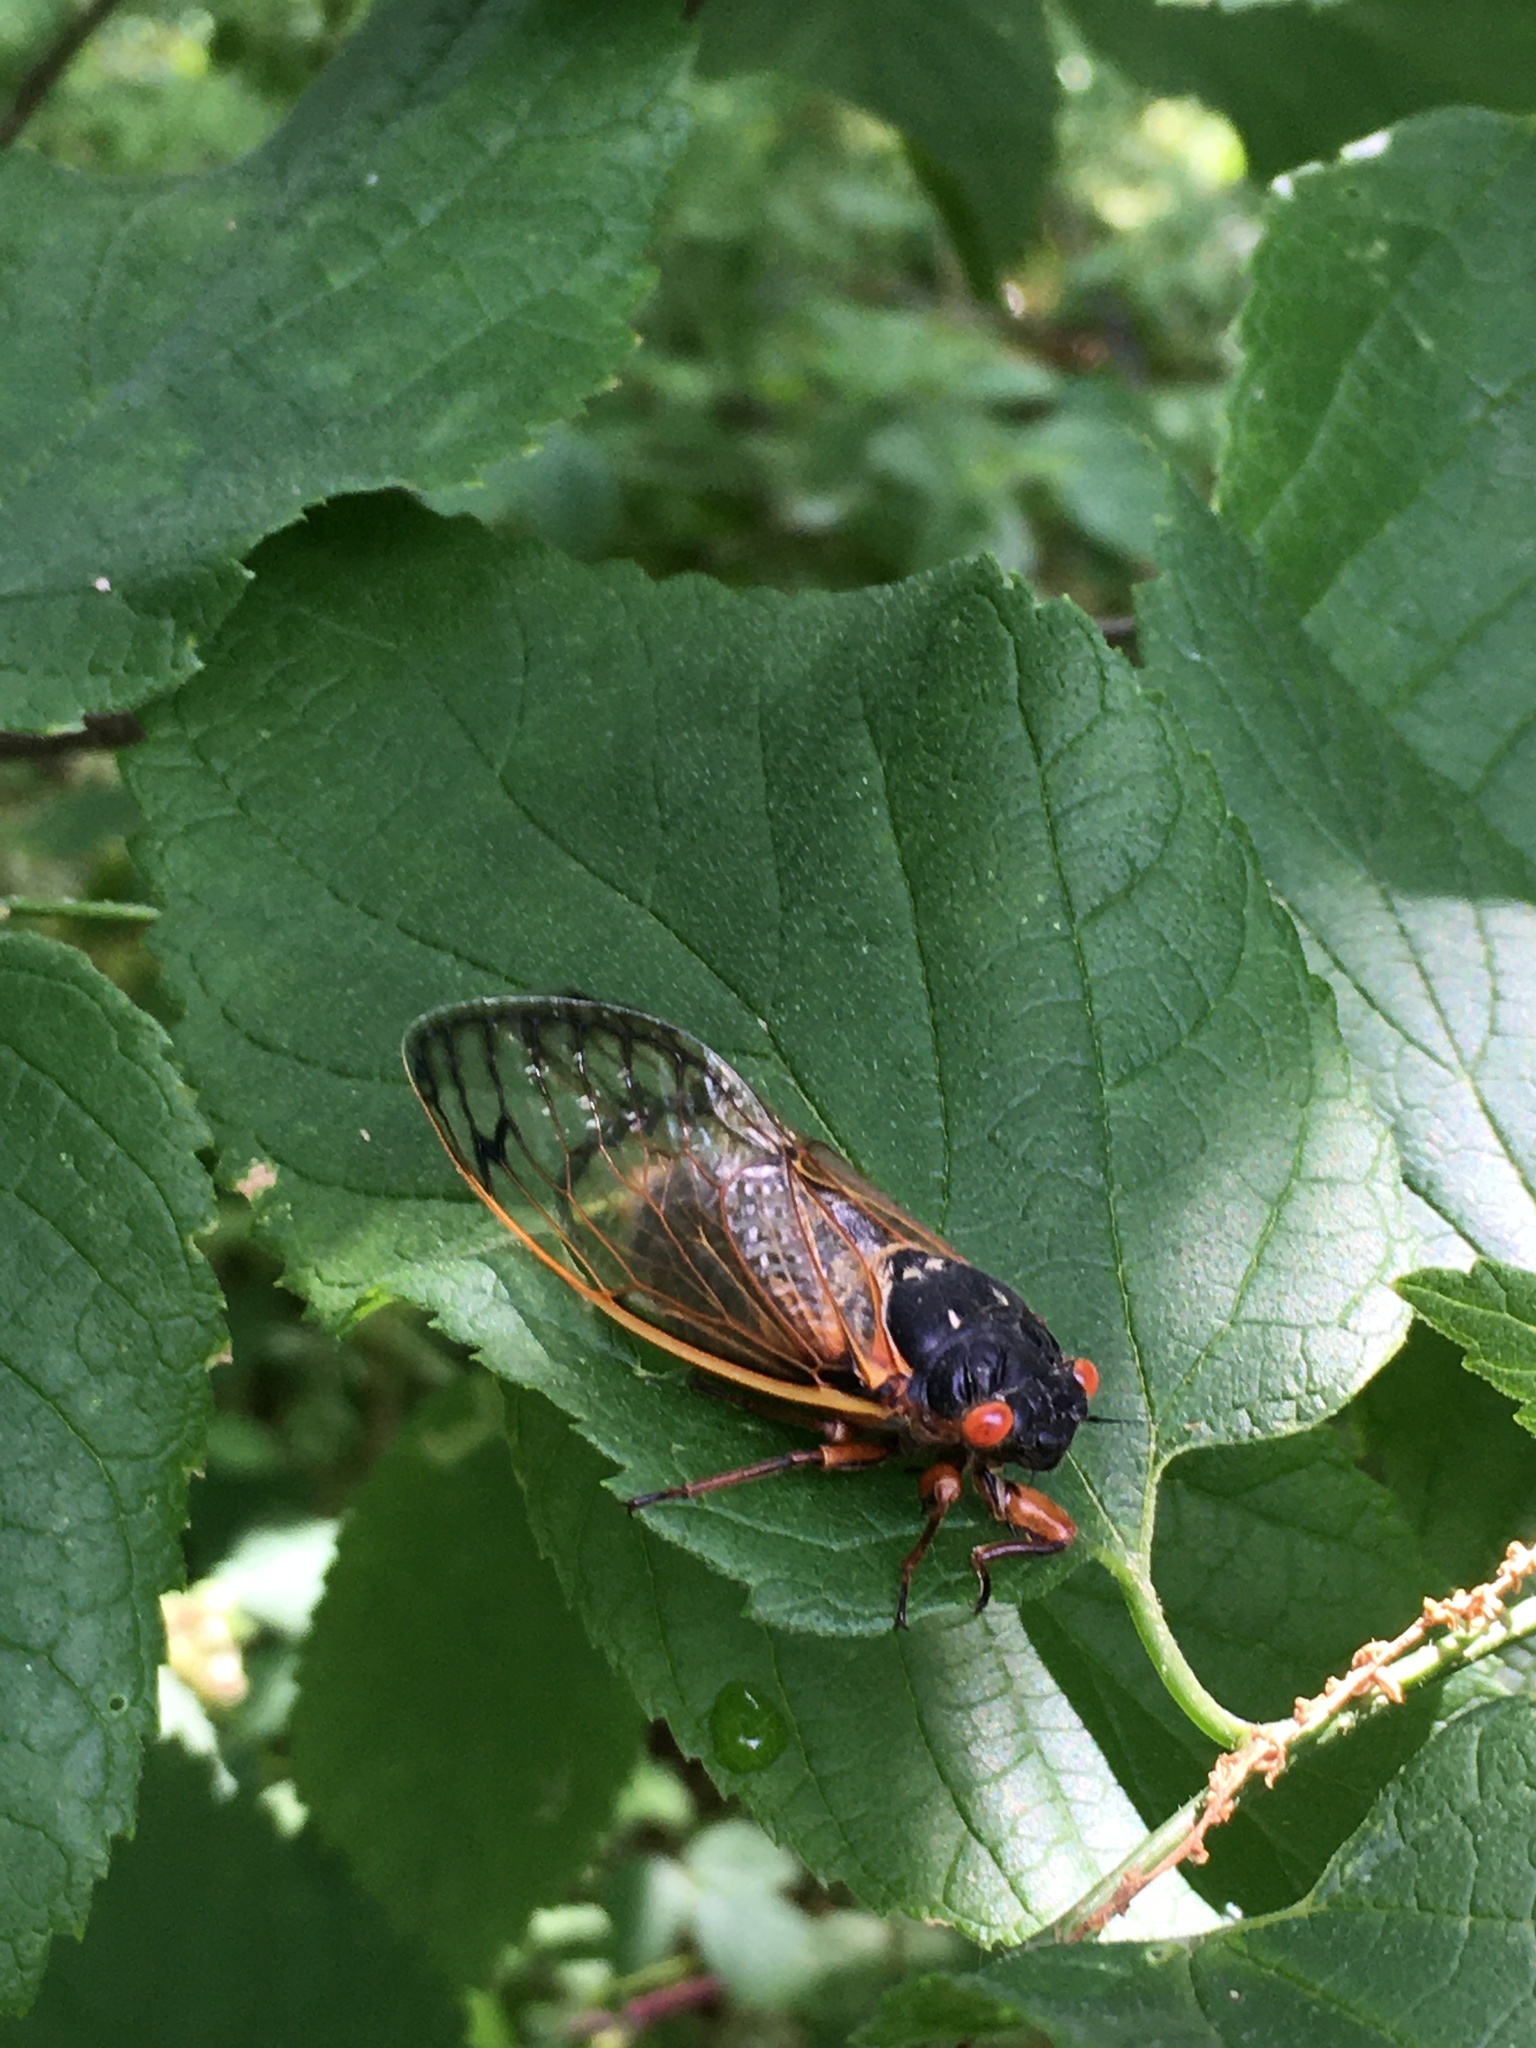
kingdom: Animalia
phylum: Arthropoda
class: Insecta
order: Hemiptera
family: Cicadidae
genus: Magicicada
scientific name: Magicicada septendecim
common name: Periodical cicada
